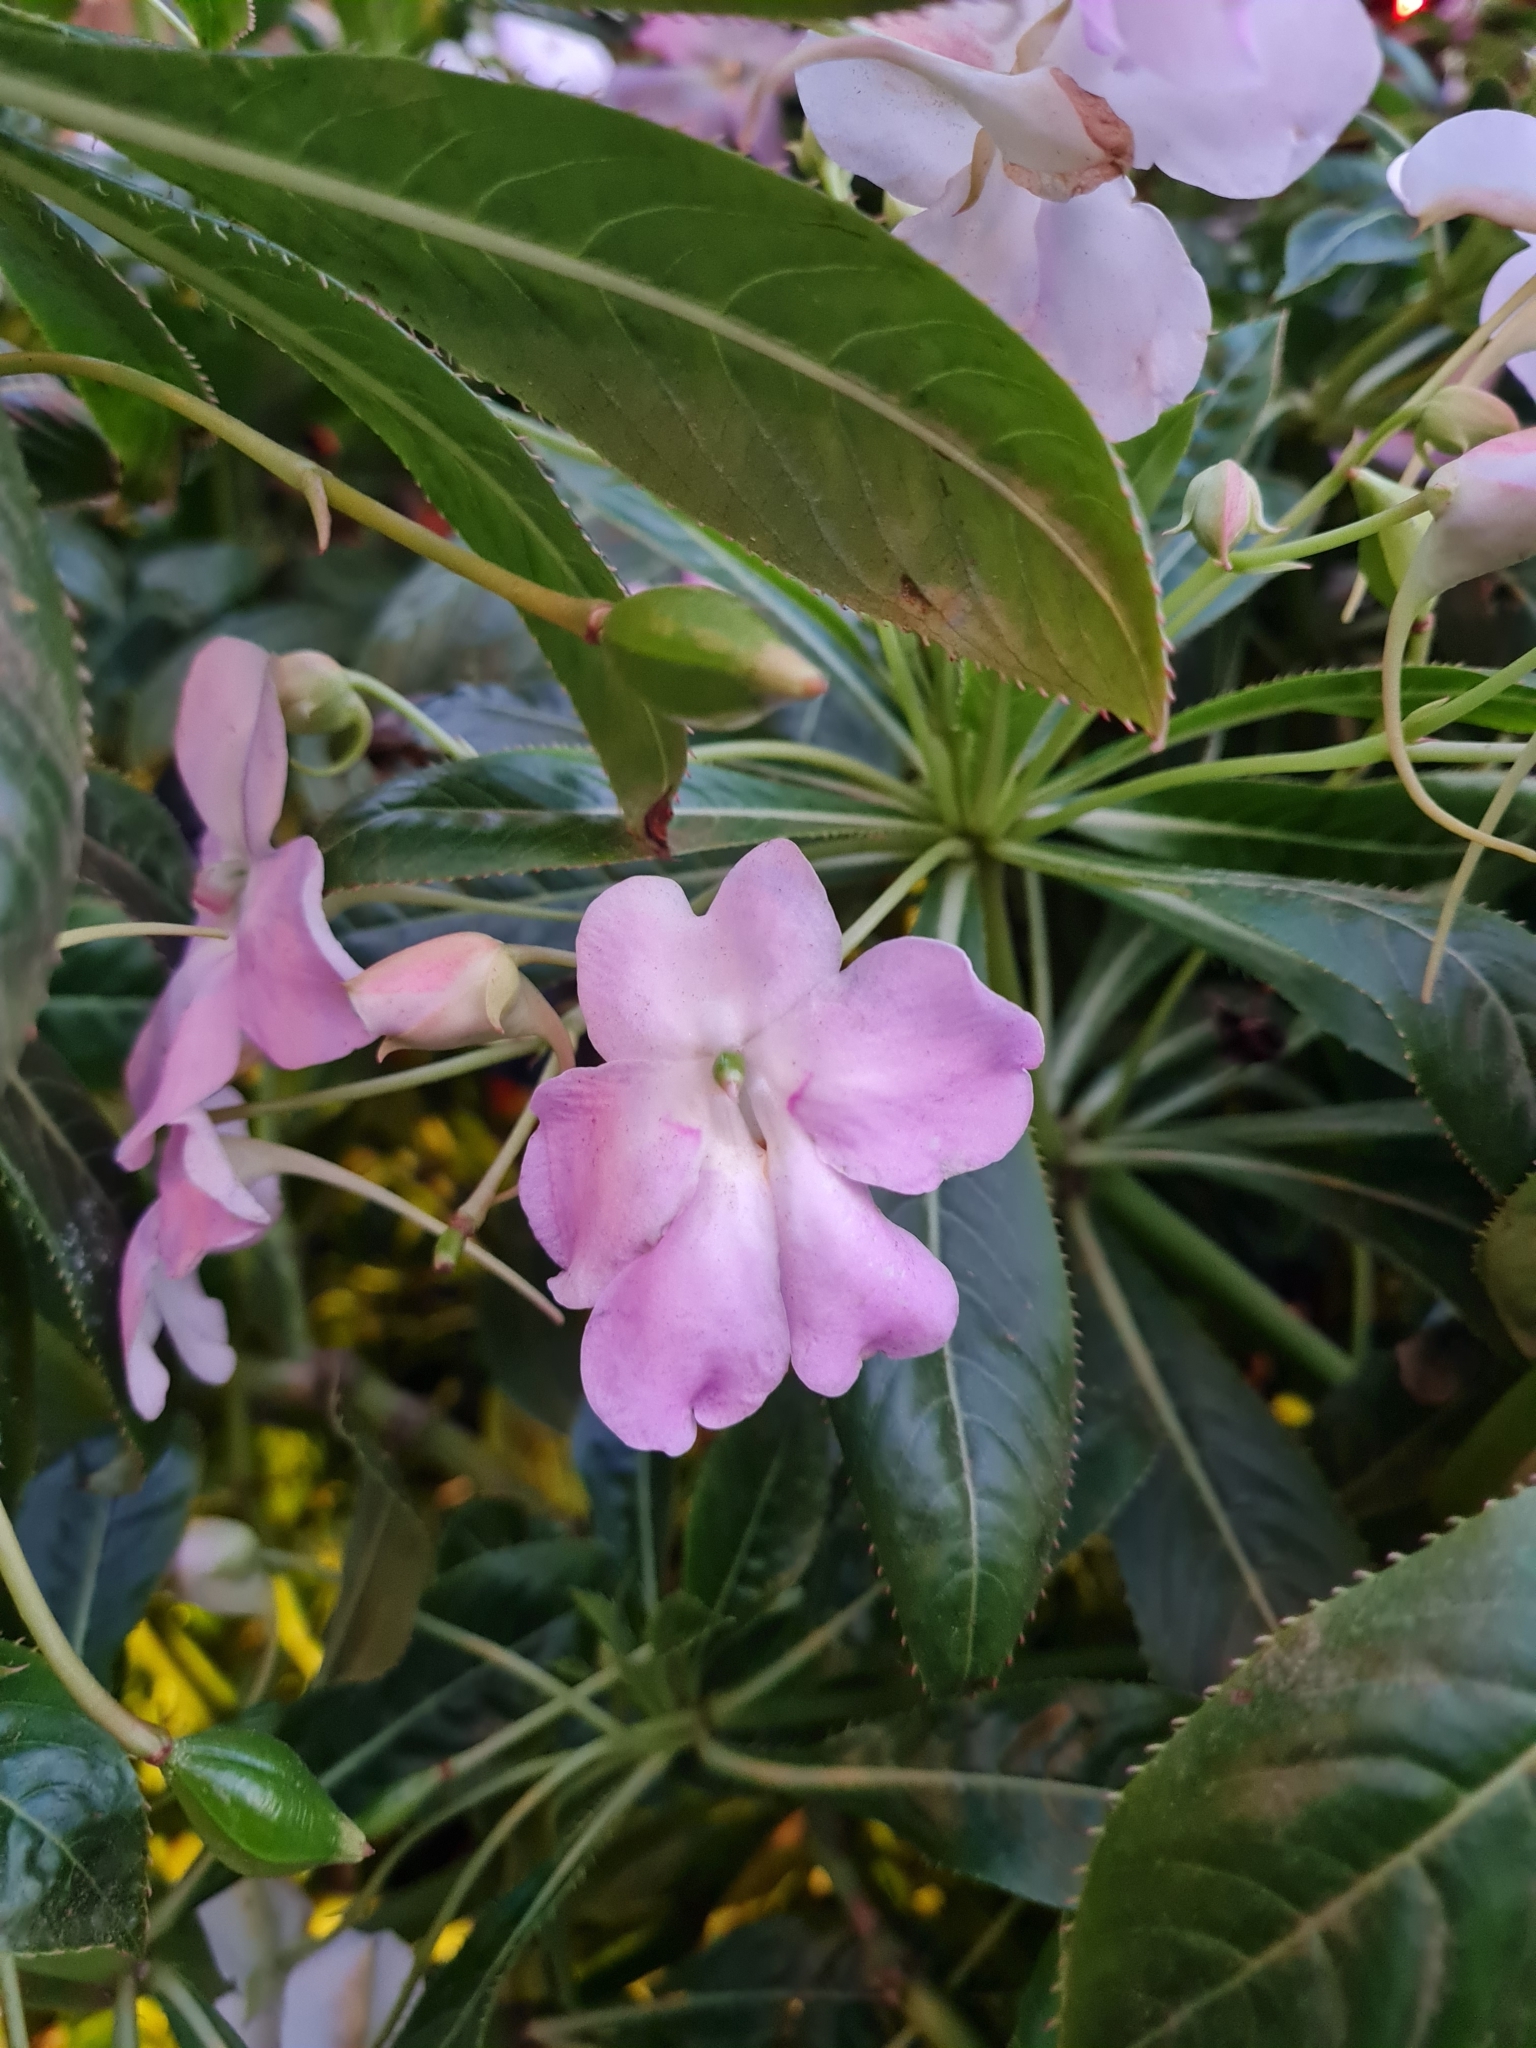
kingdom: Plantae
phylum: Tracheophyta
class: Magnoliopsida
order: Ericales
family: Balsaminaceae
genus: Impatiens
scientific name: Impatiens sodenii
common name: Oliver's touch-me-not
